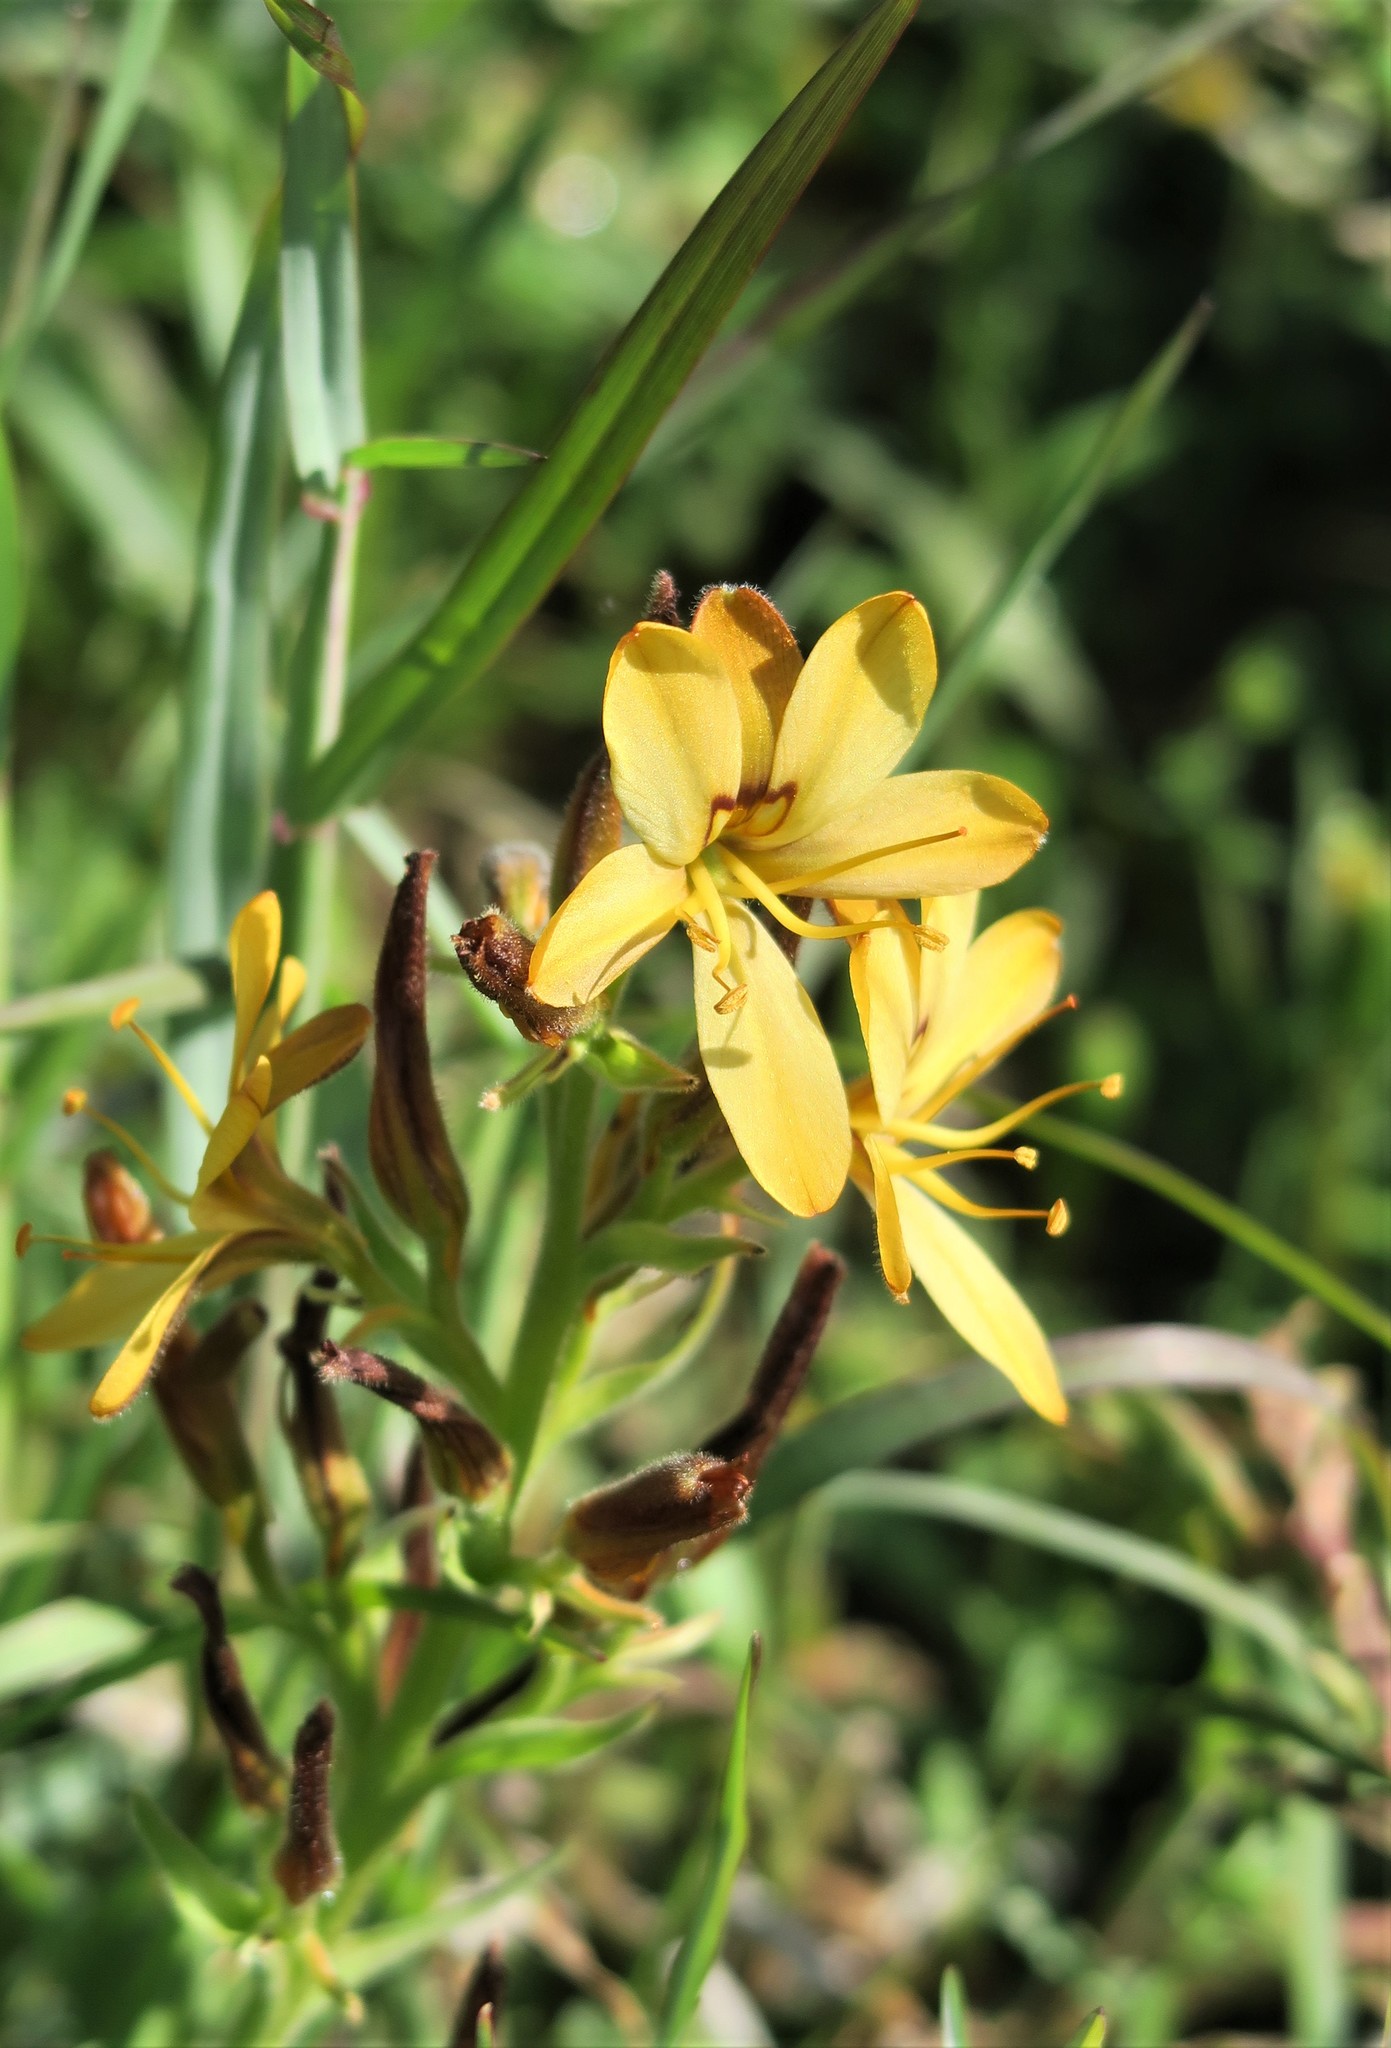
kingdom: Plantae
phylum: Tracheophyta
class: Liliopsida
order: Commelinales
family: Haemodoraceae
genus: Wachendorfia
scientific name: Wachendorfia multiflora
